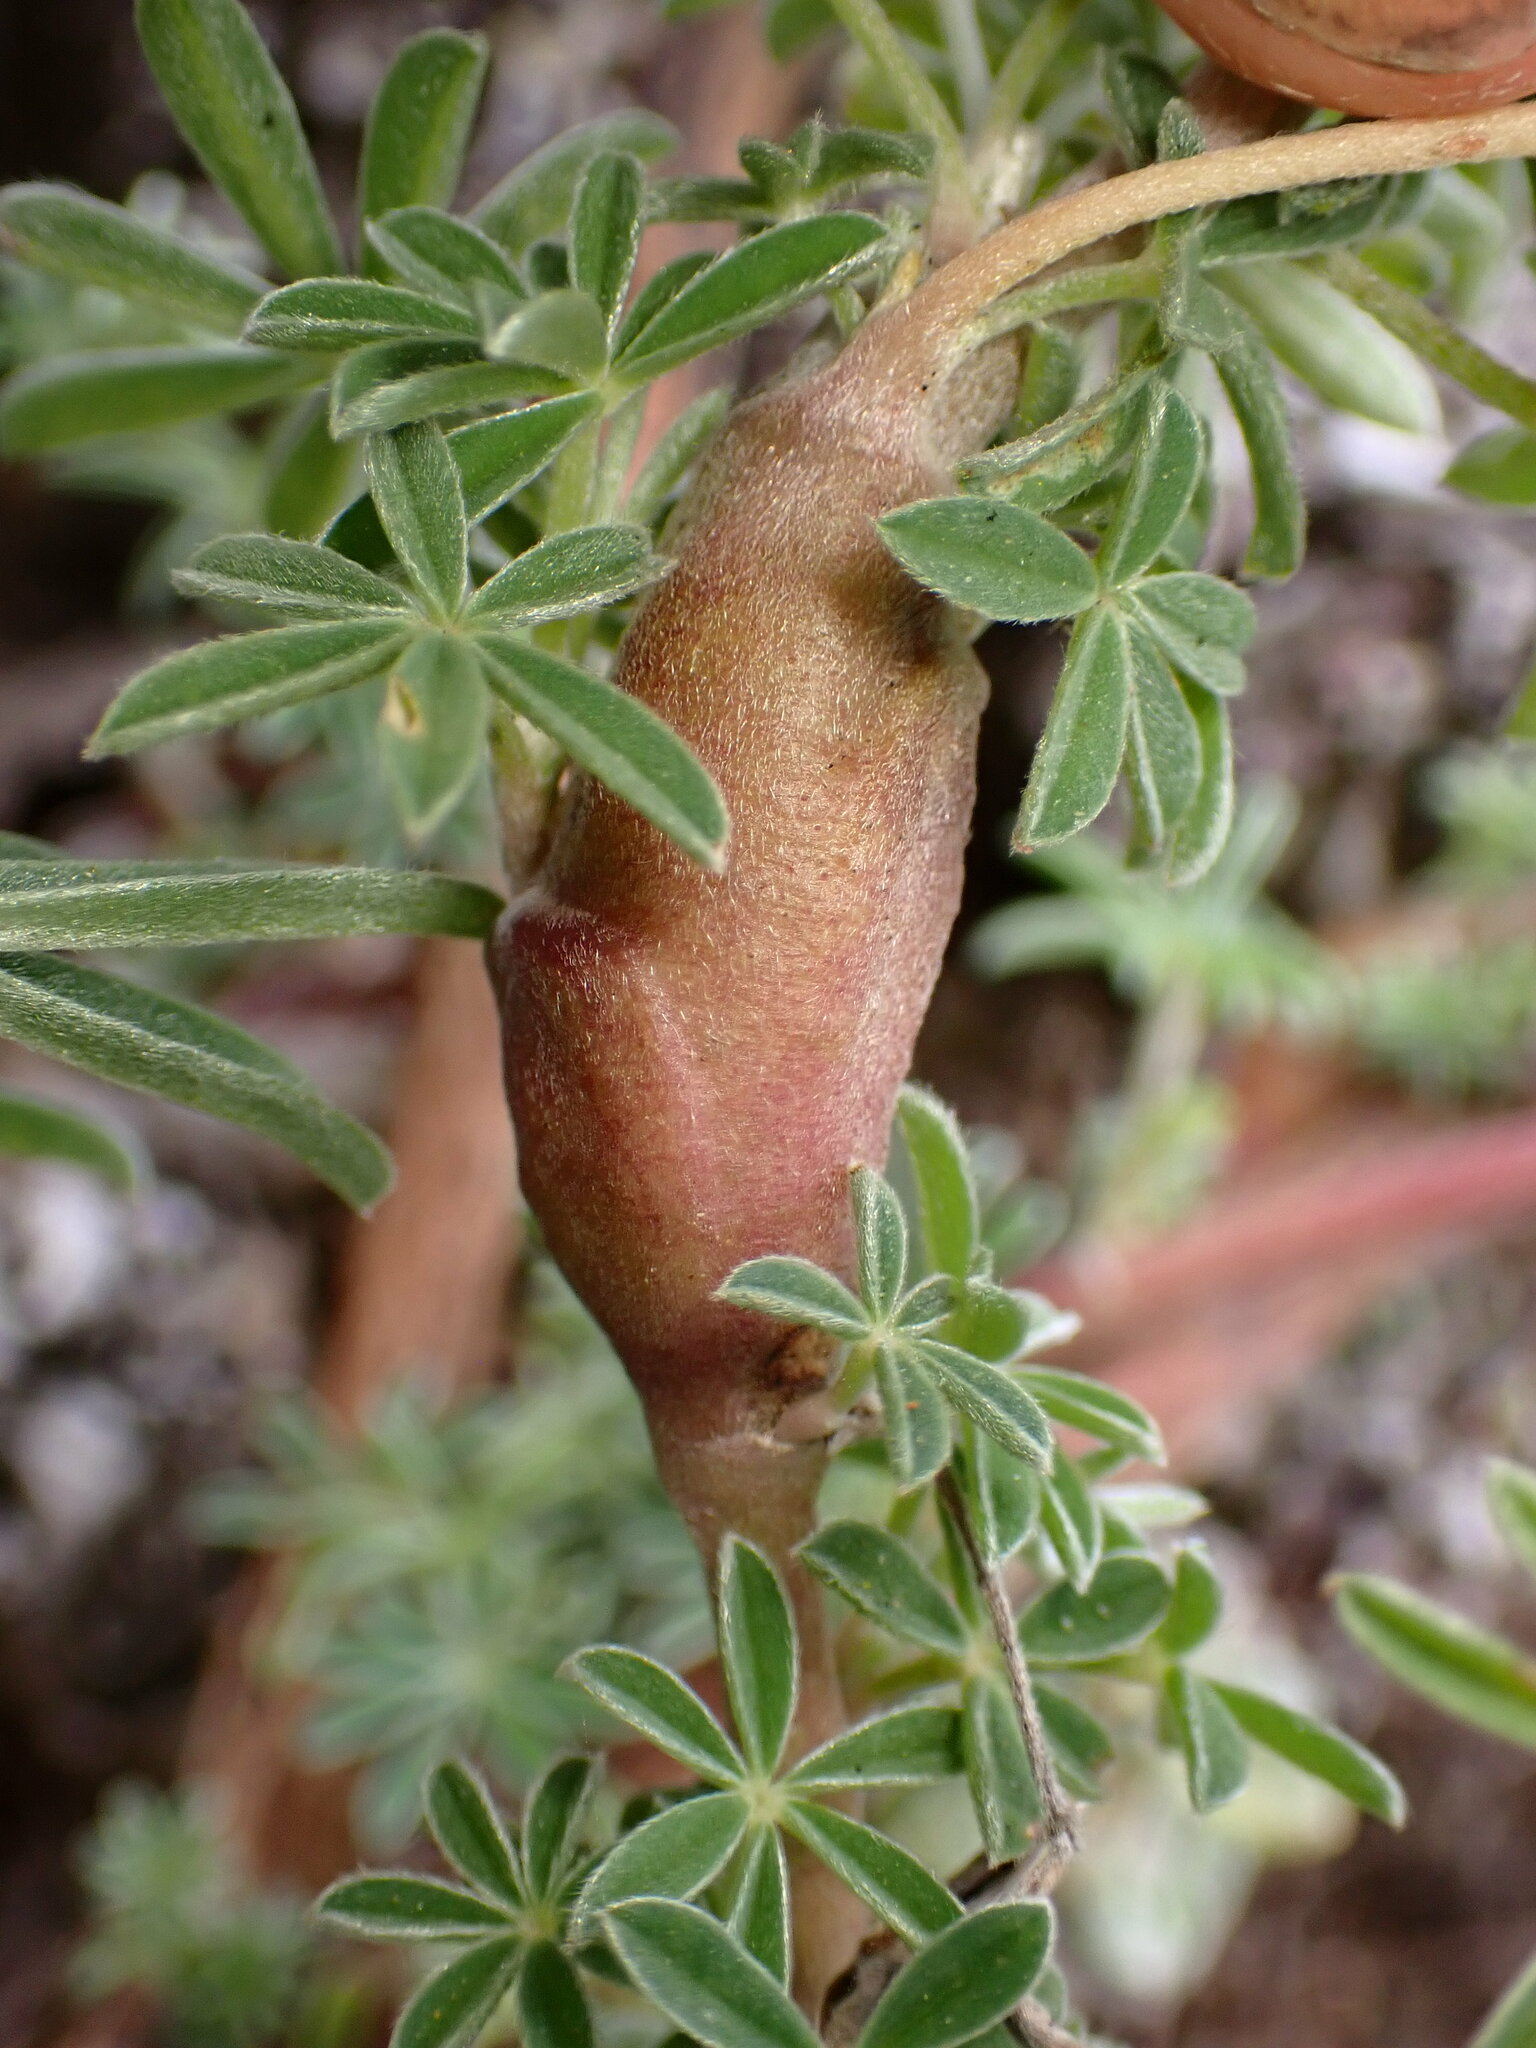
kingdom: Animalia
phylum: Arthropoda
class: Insecta
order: Diptera
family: Cecidomyiidae
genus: Neolasioptera
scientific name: Neolasioptera lupini
